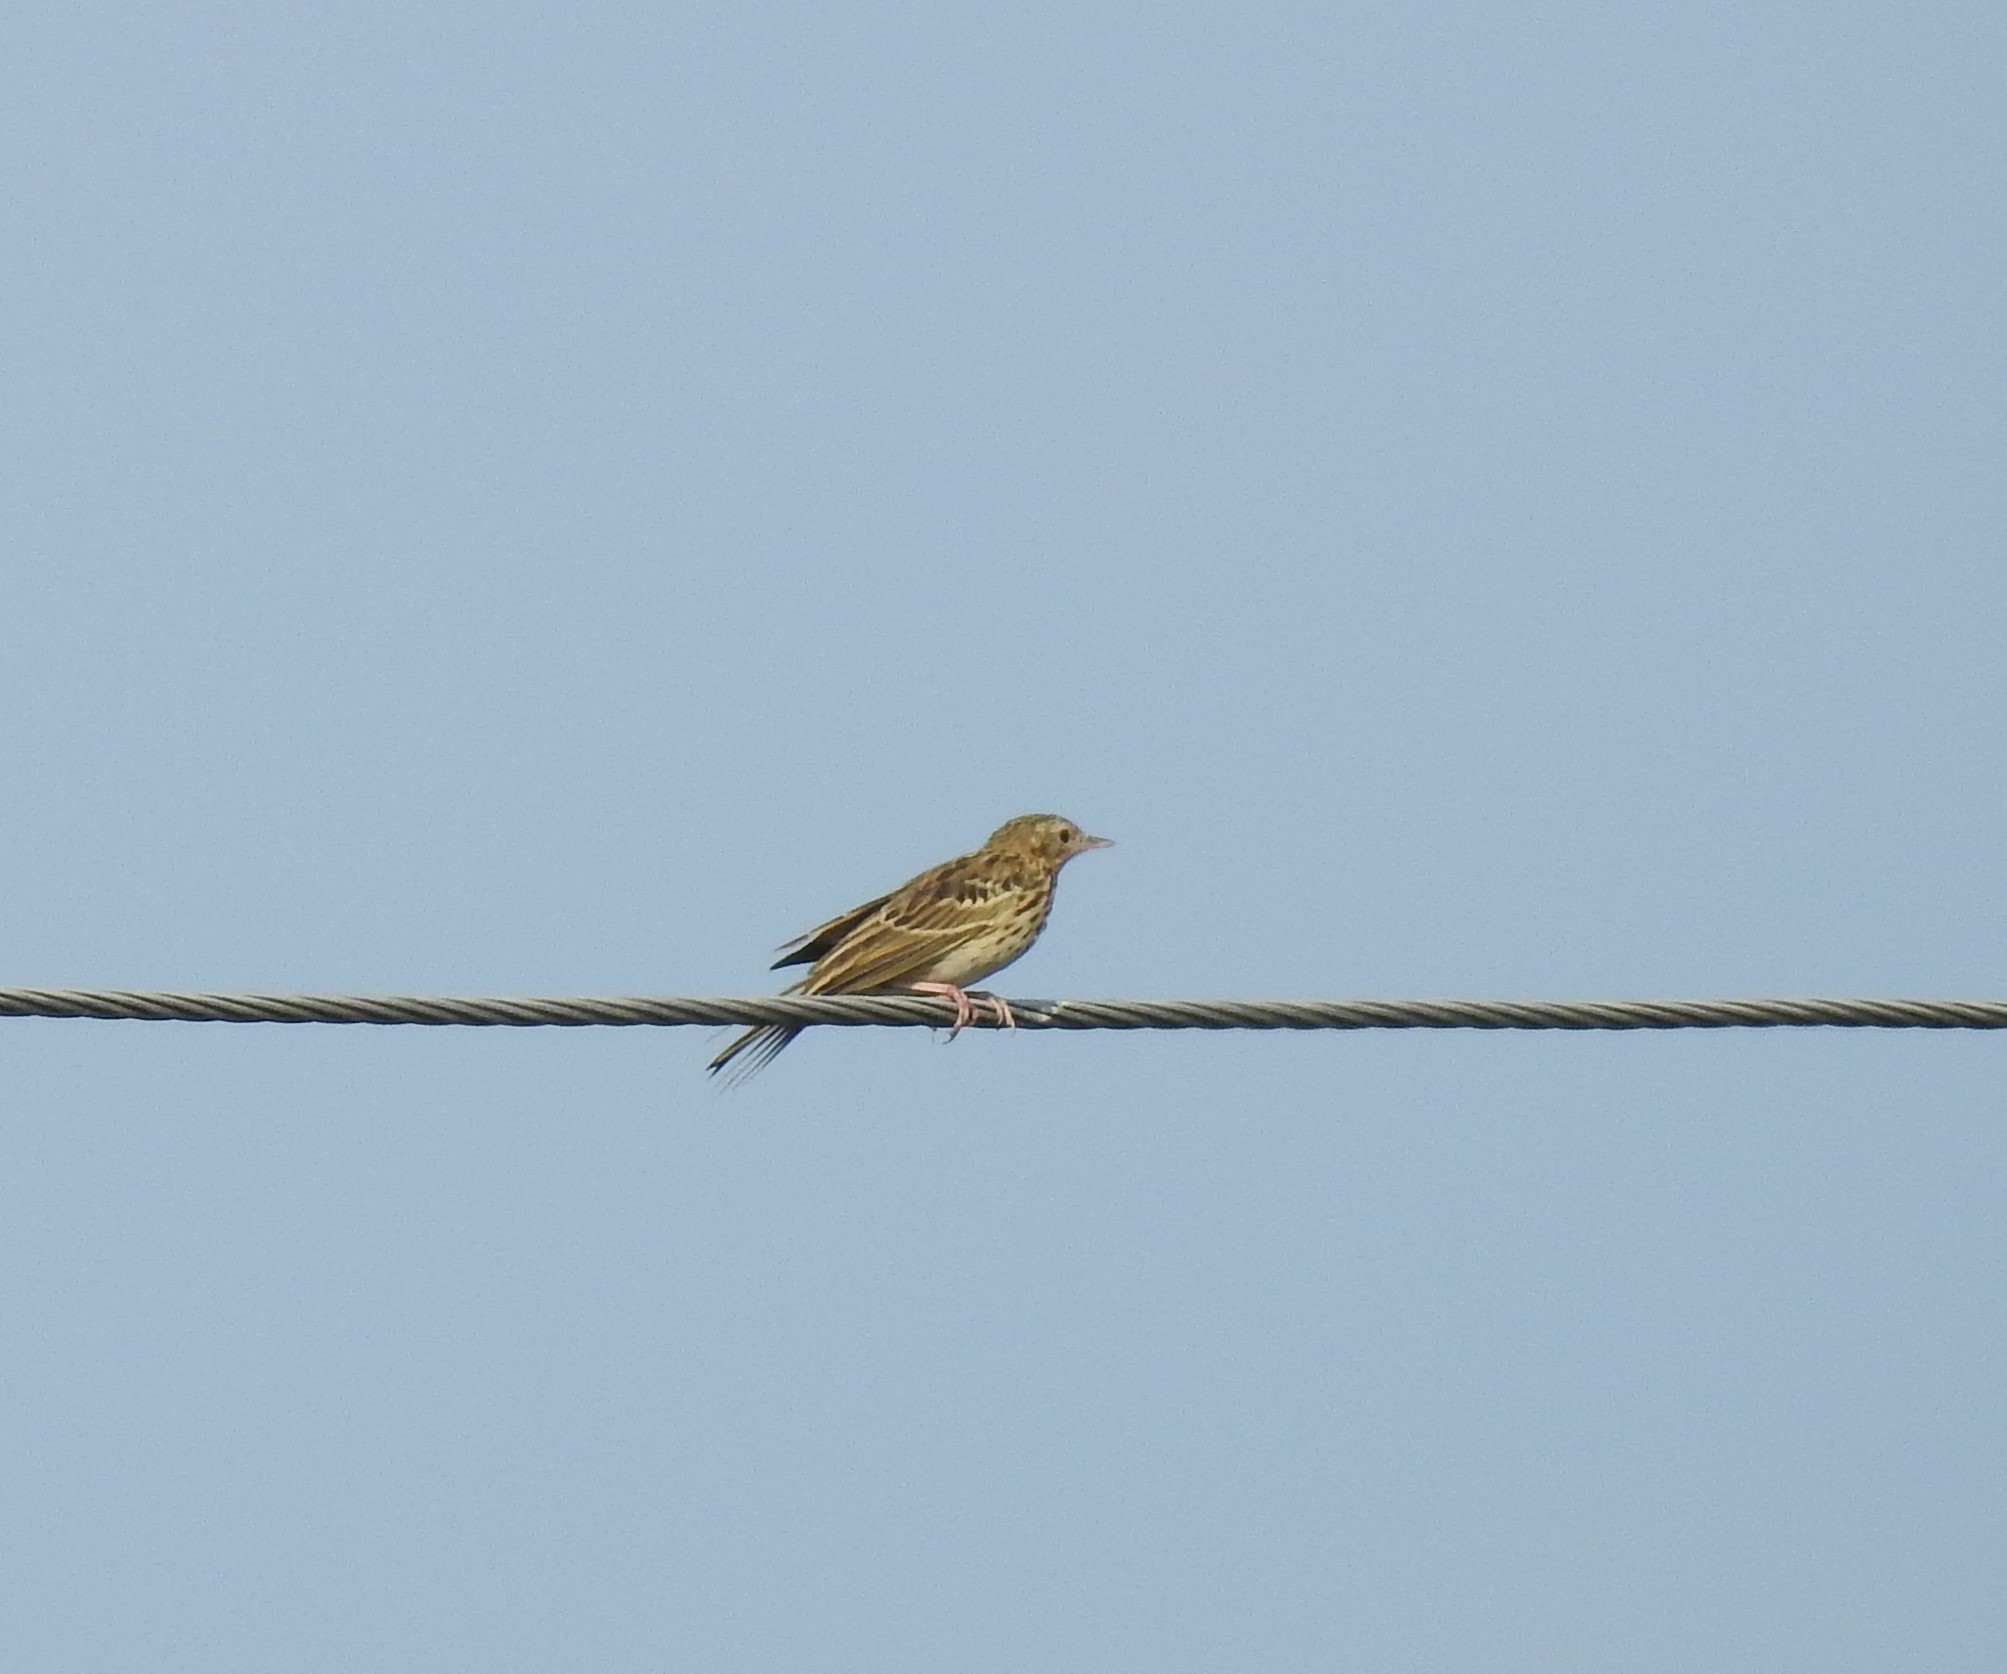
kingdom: Animalia
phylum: Chordata
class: Aves
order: Passeriformes
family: Motacillidae
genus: Anthus
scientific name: Anthus trivialis
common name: Tree pipit
